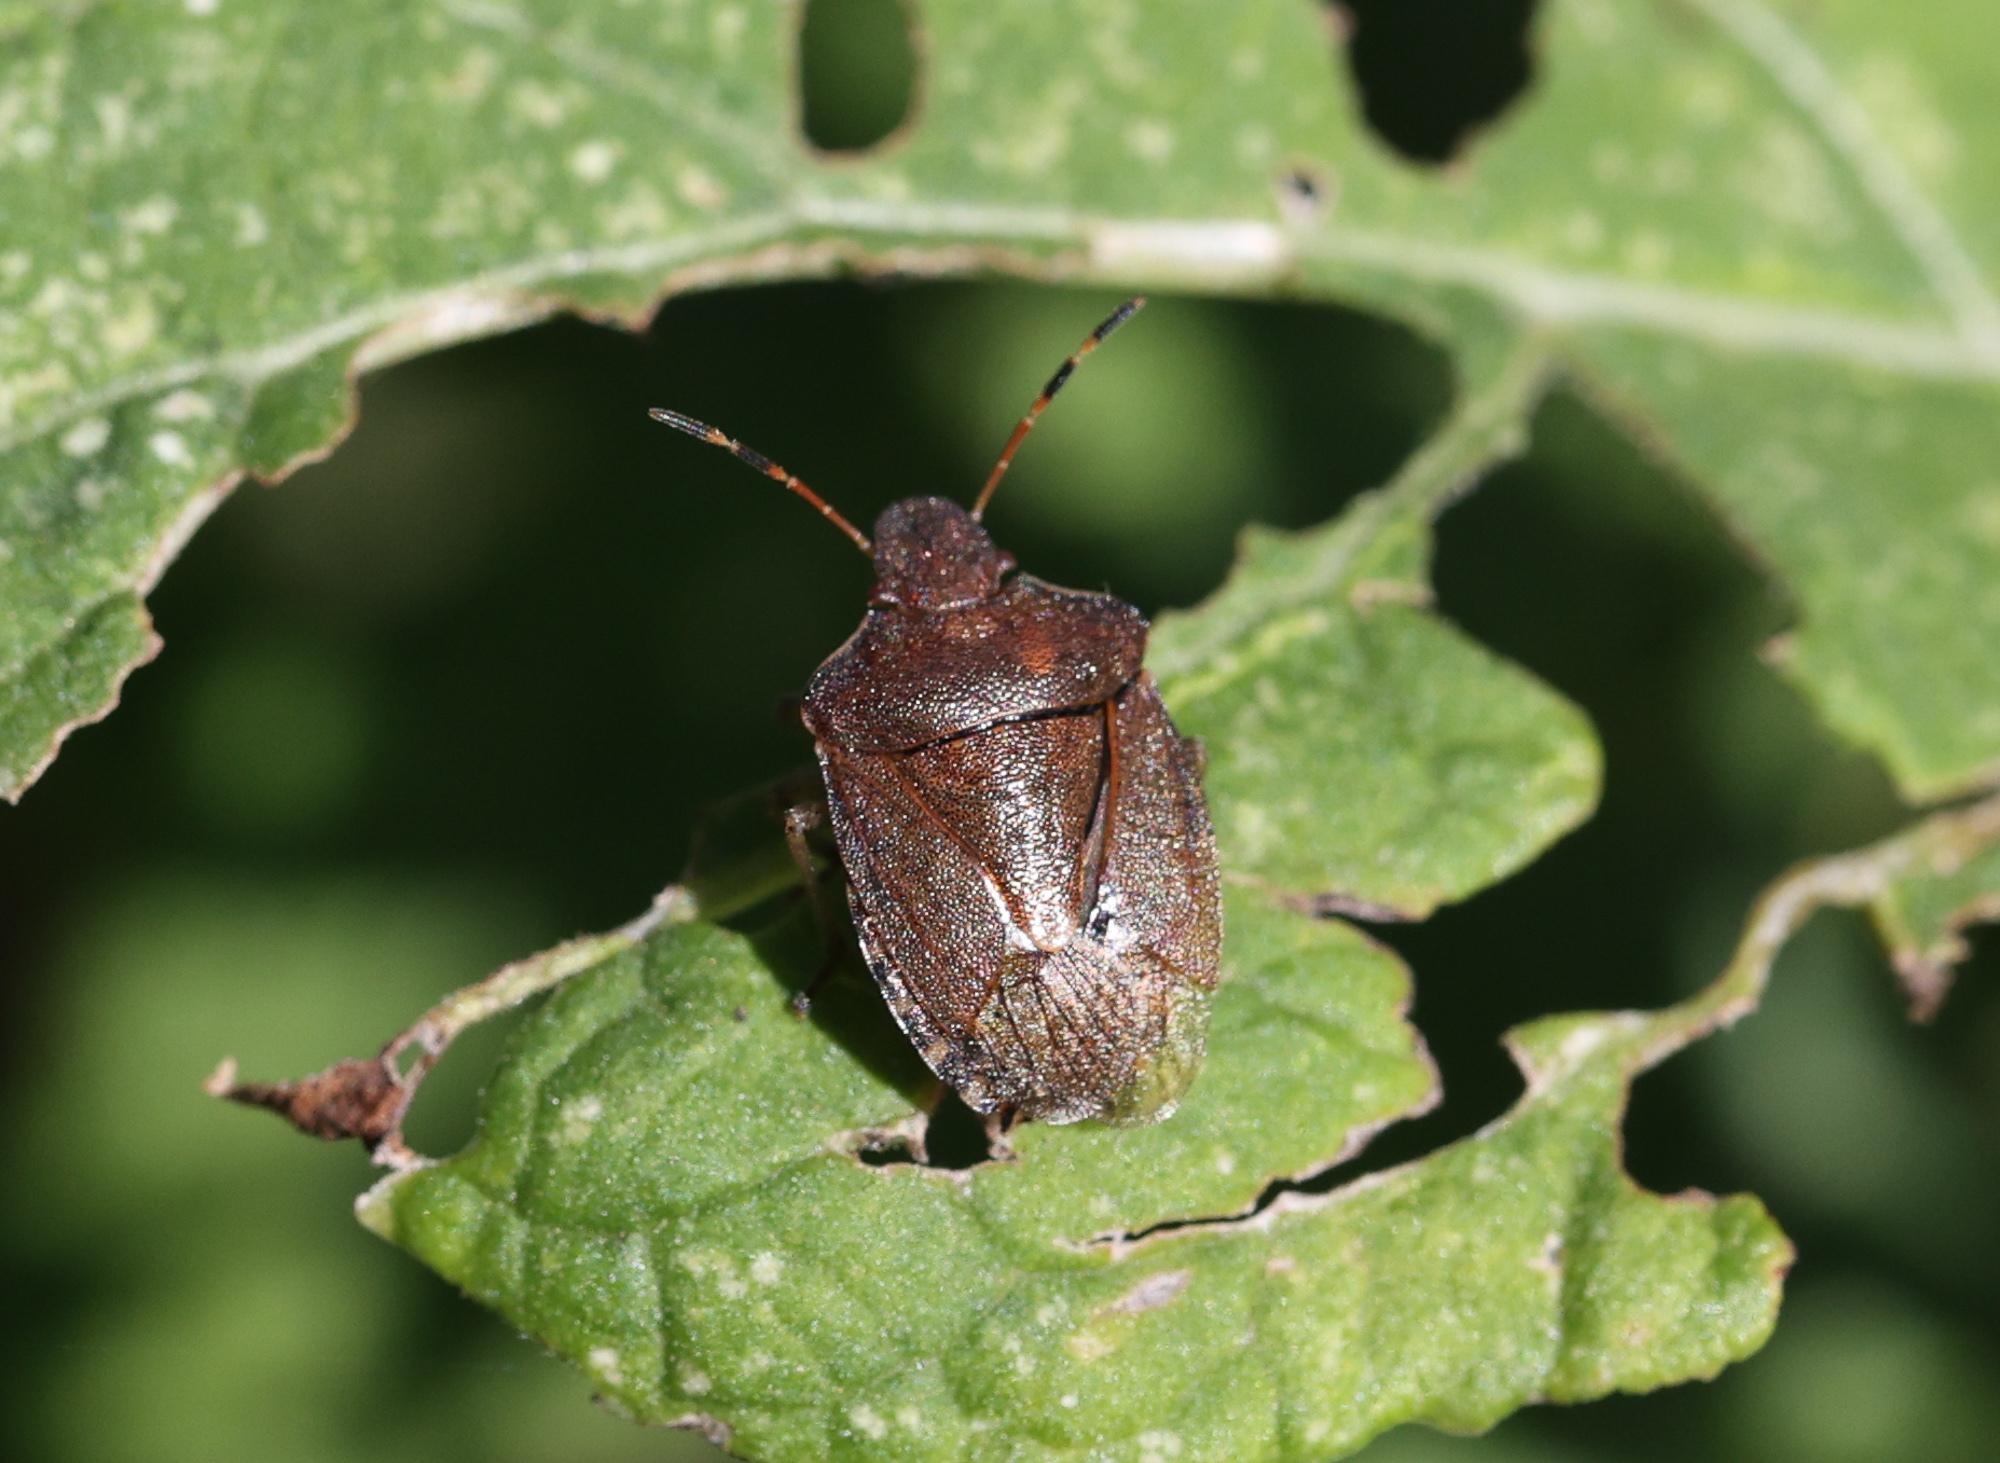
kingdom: Animalia
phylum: Arthropoda
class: Insecta
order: Hemiptera
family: Pentatomidae
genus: Holcostethus
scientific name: Holcostethus strictus
